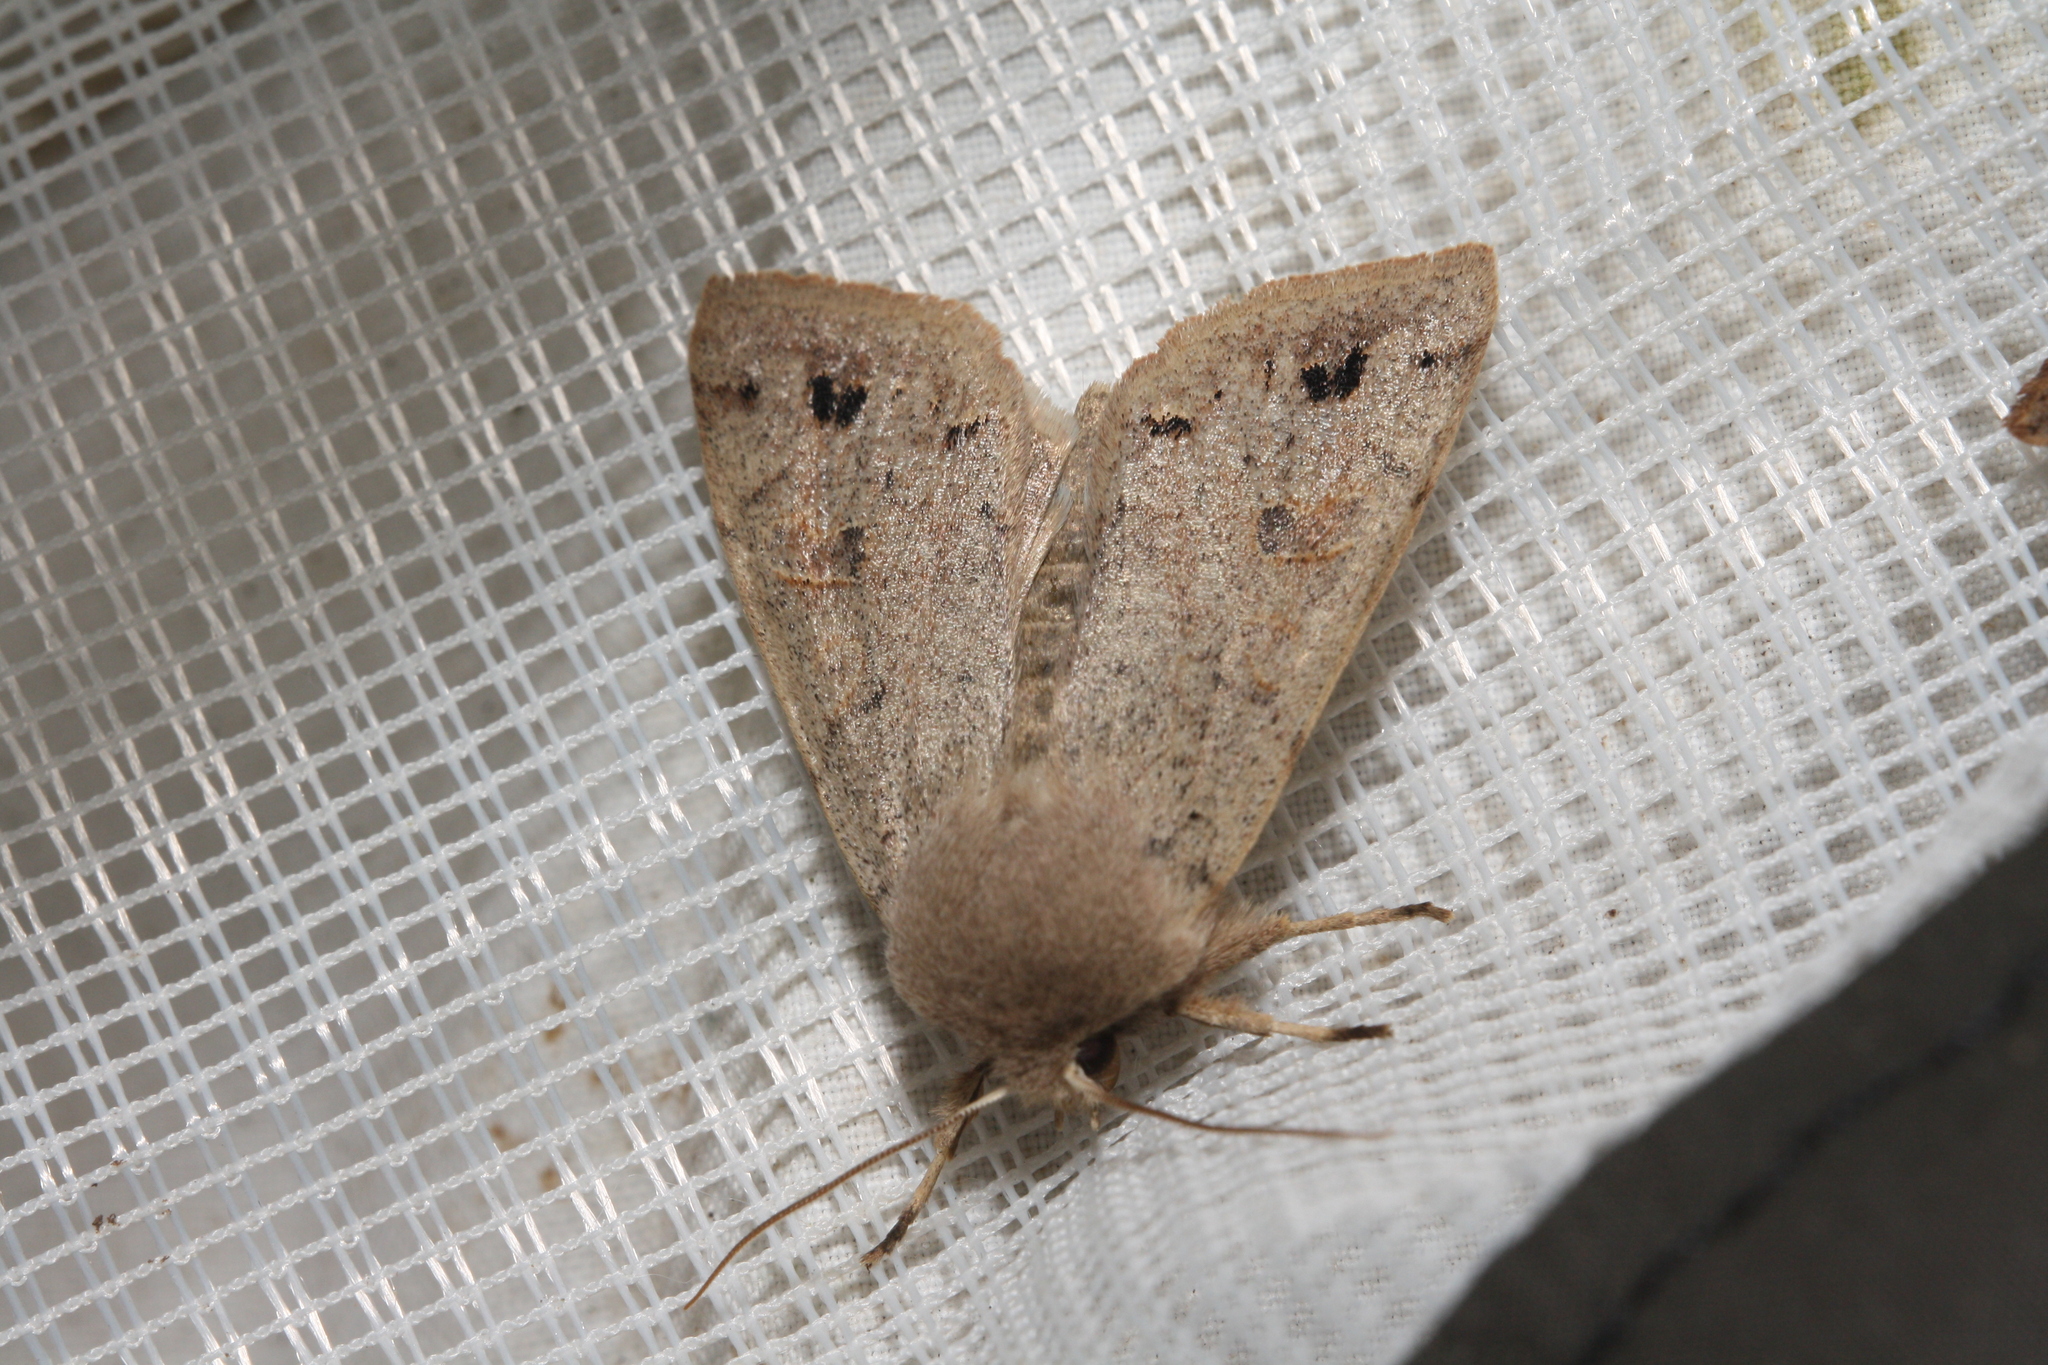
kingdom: Animalia
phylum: Arthropoda
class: Insecta
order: Lepidoptera
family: Noctuidae
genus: Anorthoa
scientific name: Anorthoa munda
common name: Twin-spotted quaker
